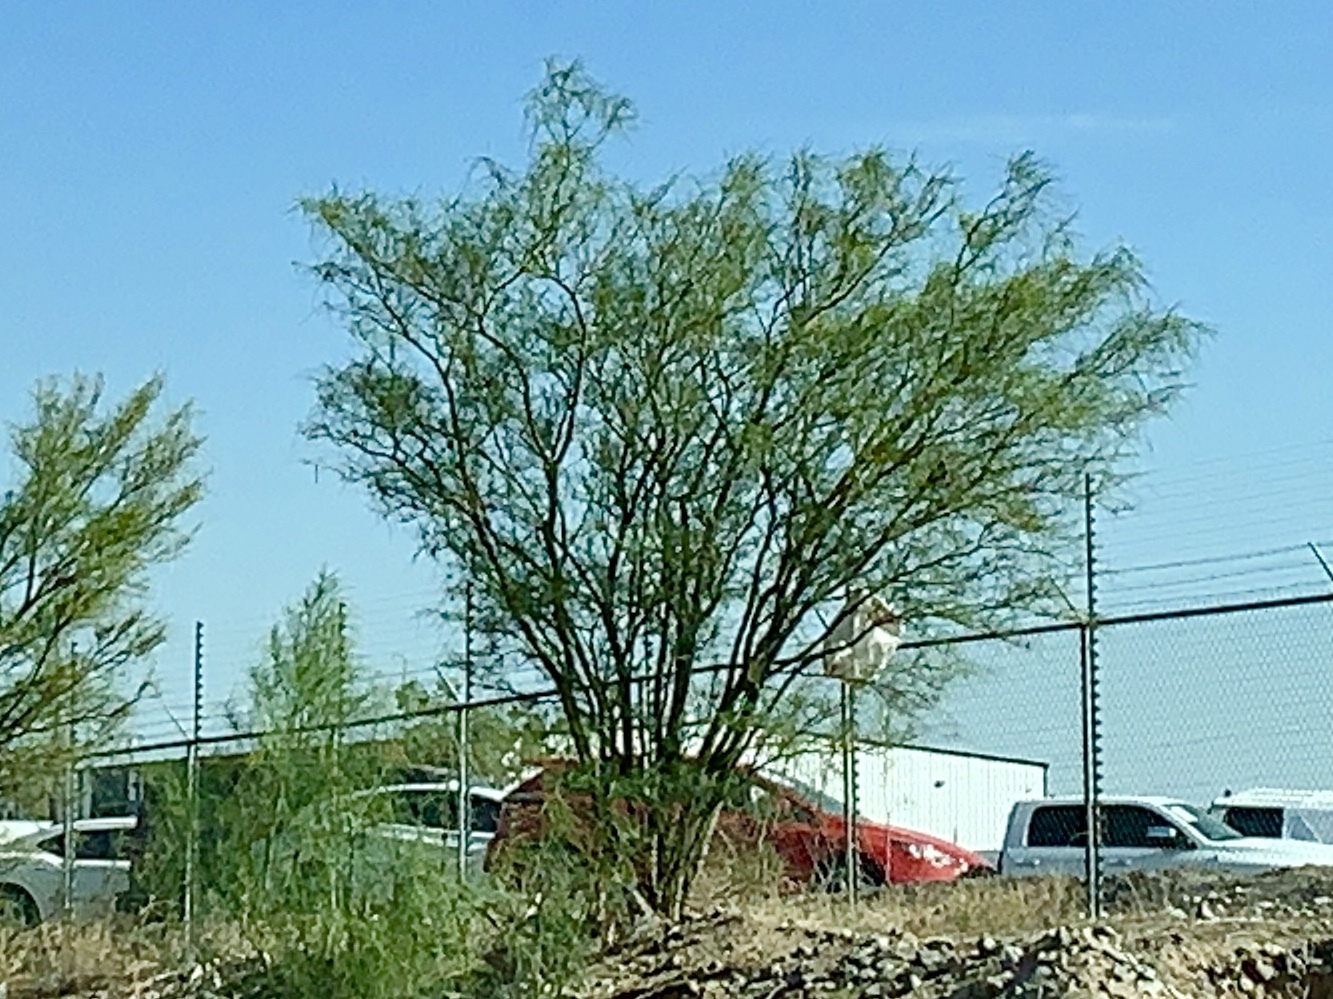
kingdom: Plantae
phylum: Tracheophyta
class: Magnoliopsida
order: Fabales
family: Fabaceae
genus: Parkinsonia
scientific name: Parkinsonia aculeata
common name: Jerusalem thorn
